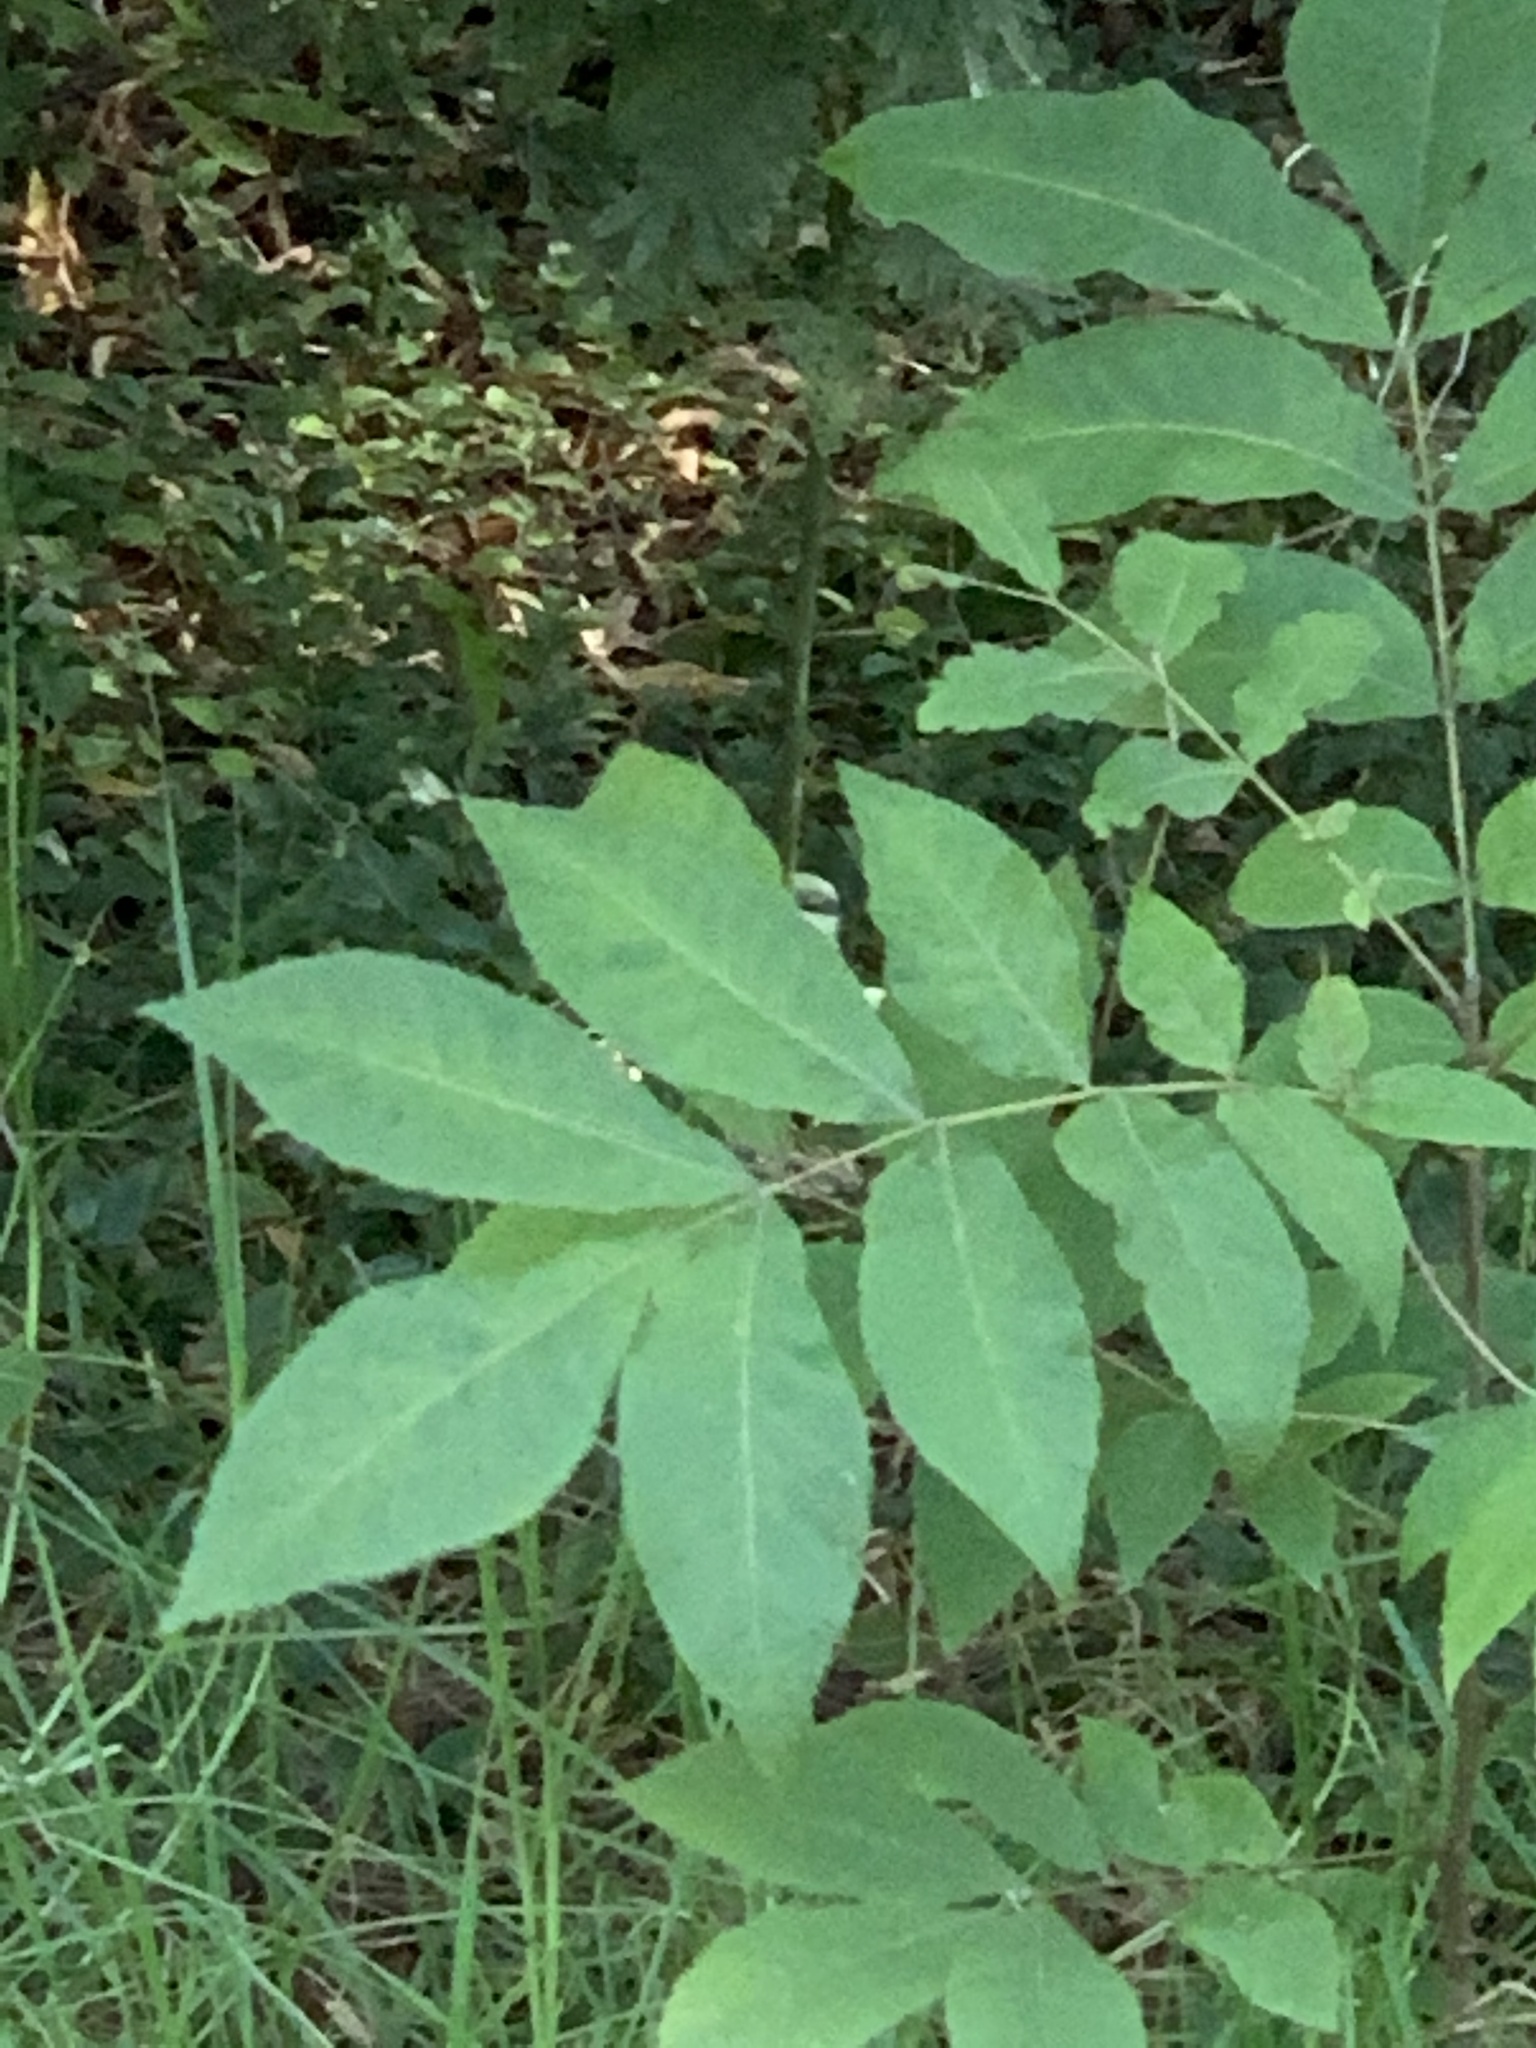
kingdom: Plantae
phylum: Tracheophyta
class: Magnoliopsida
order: Fagales
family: Juglandaceae
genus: Carya
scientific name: Carya illinoinensis
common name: Pecan
